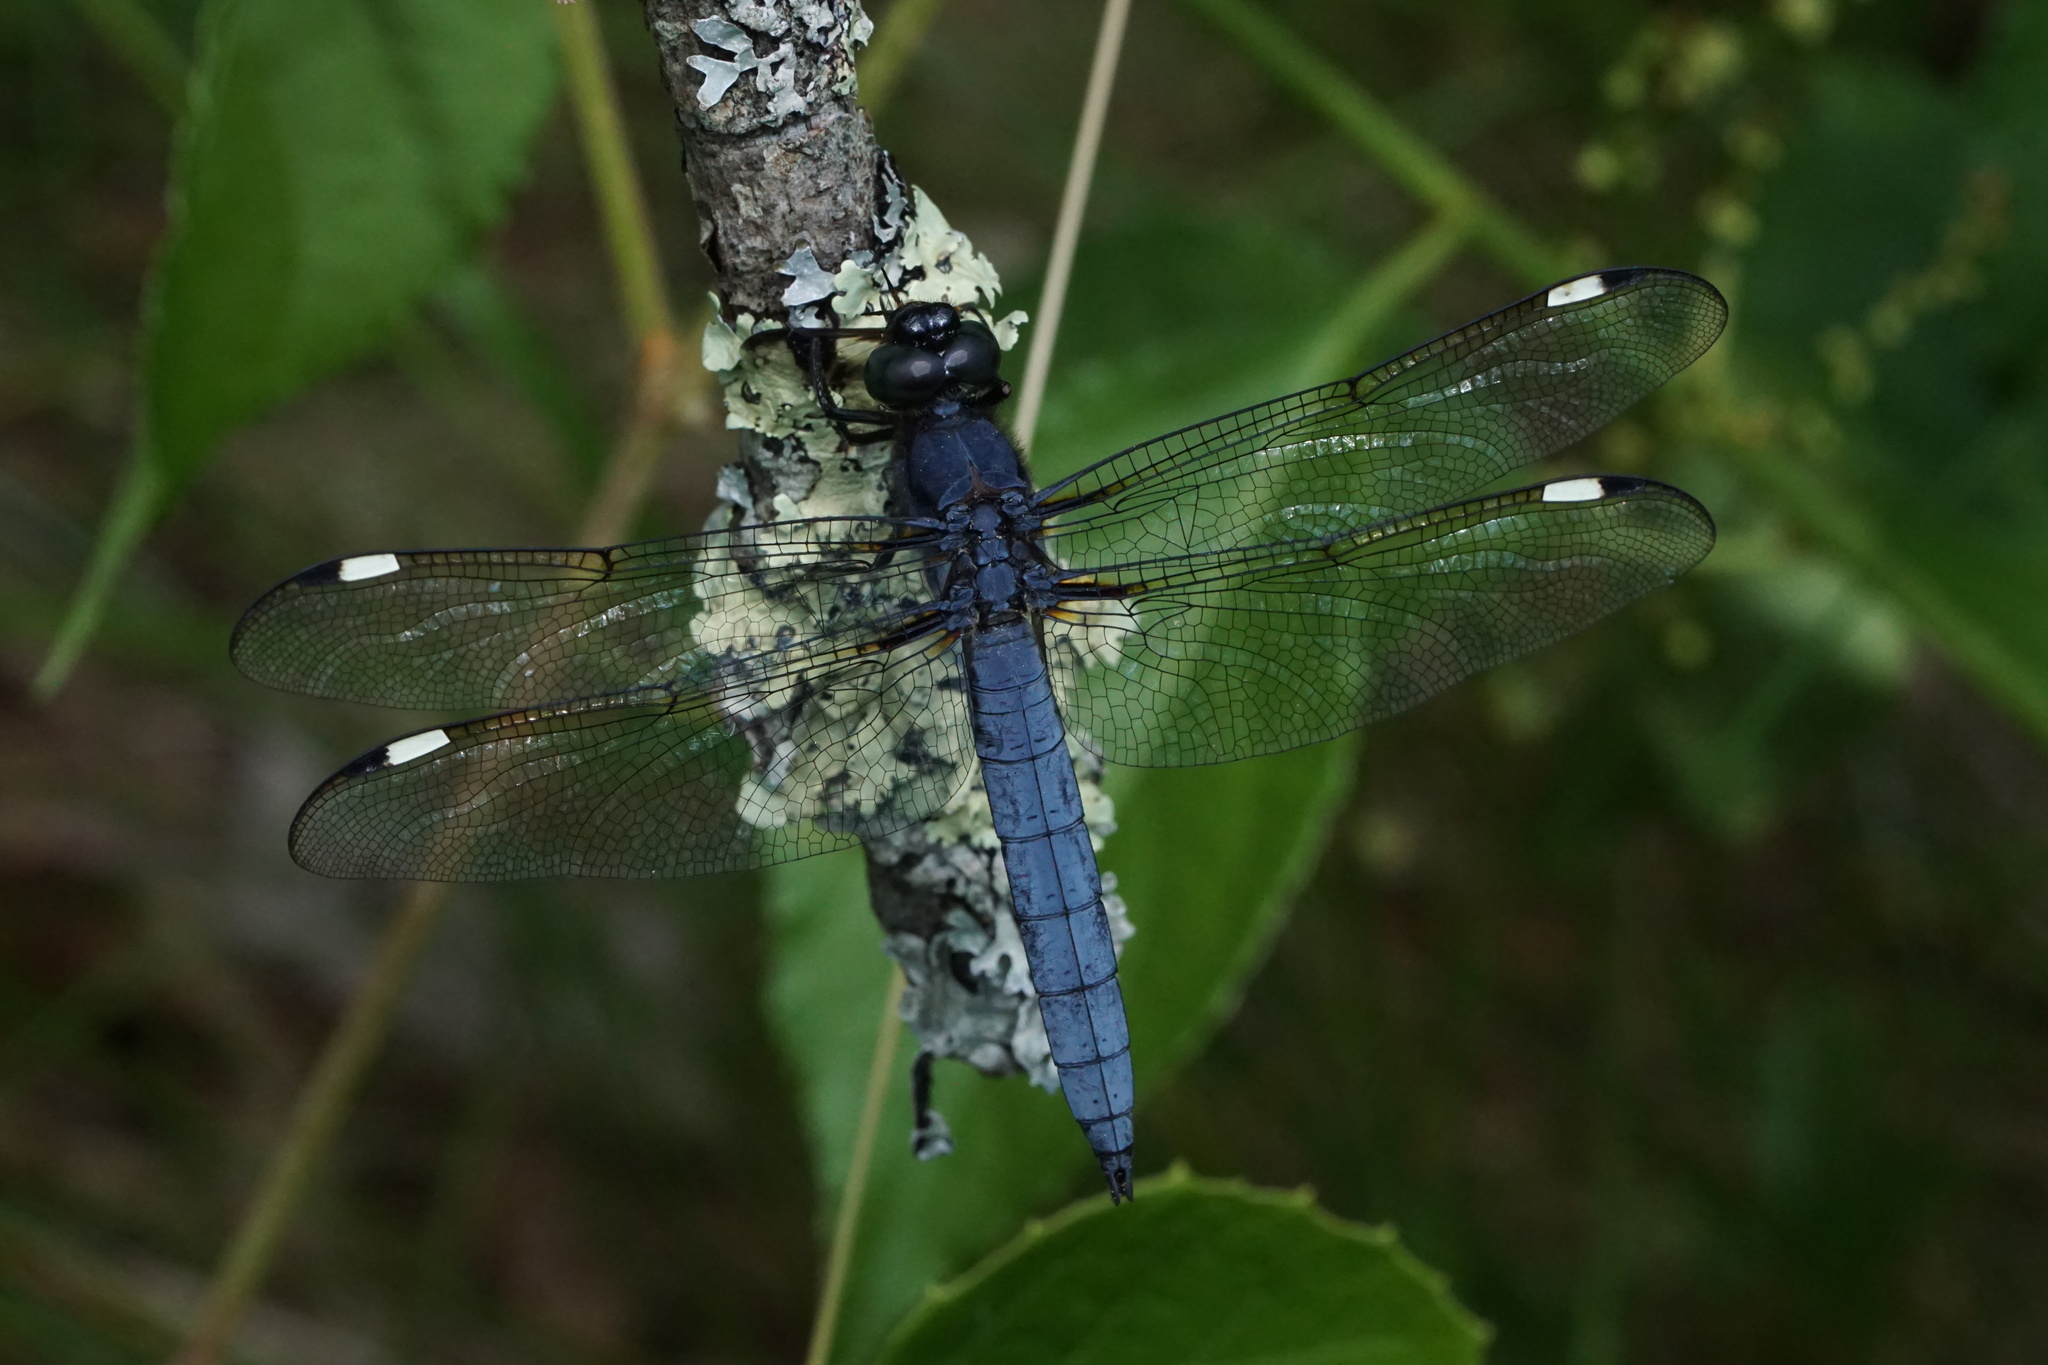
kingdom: Animalia
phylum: Arthropoda
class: Insecta
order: Odonata
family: Libellulidae
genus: Libellula
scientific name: Libellula cyanea
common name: Spangled skimmer
